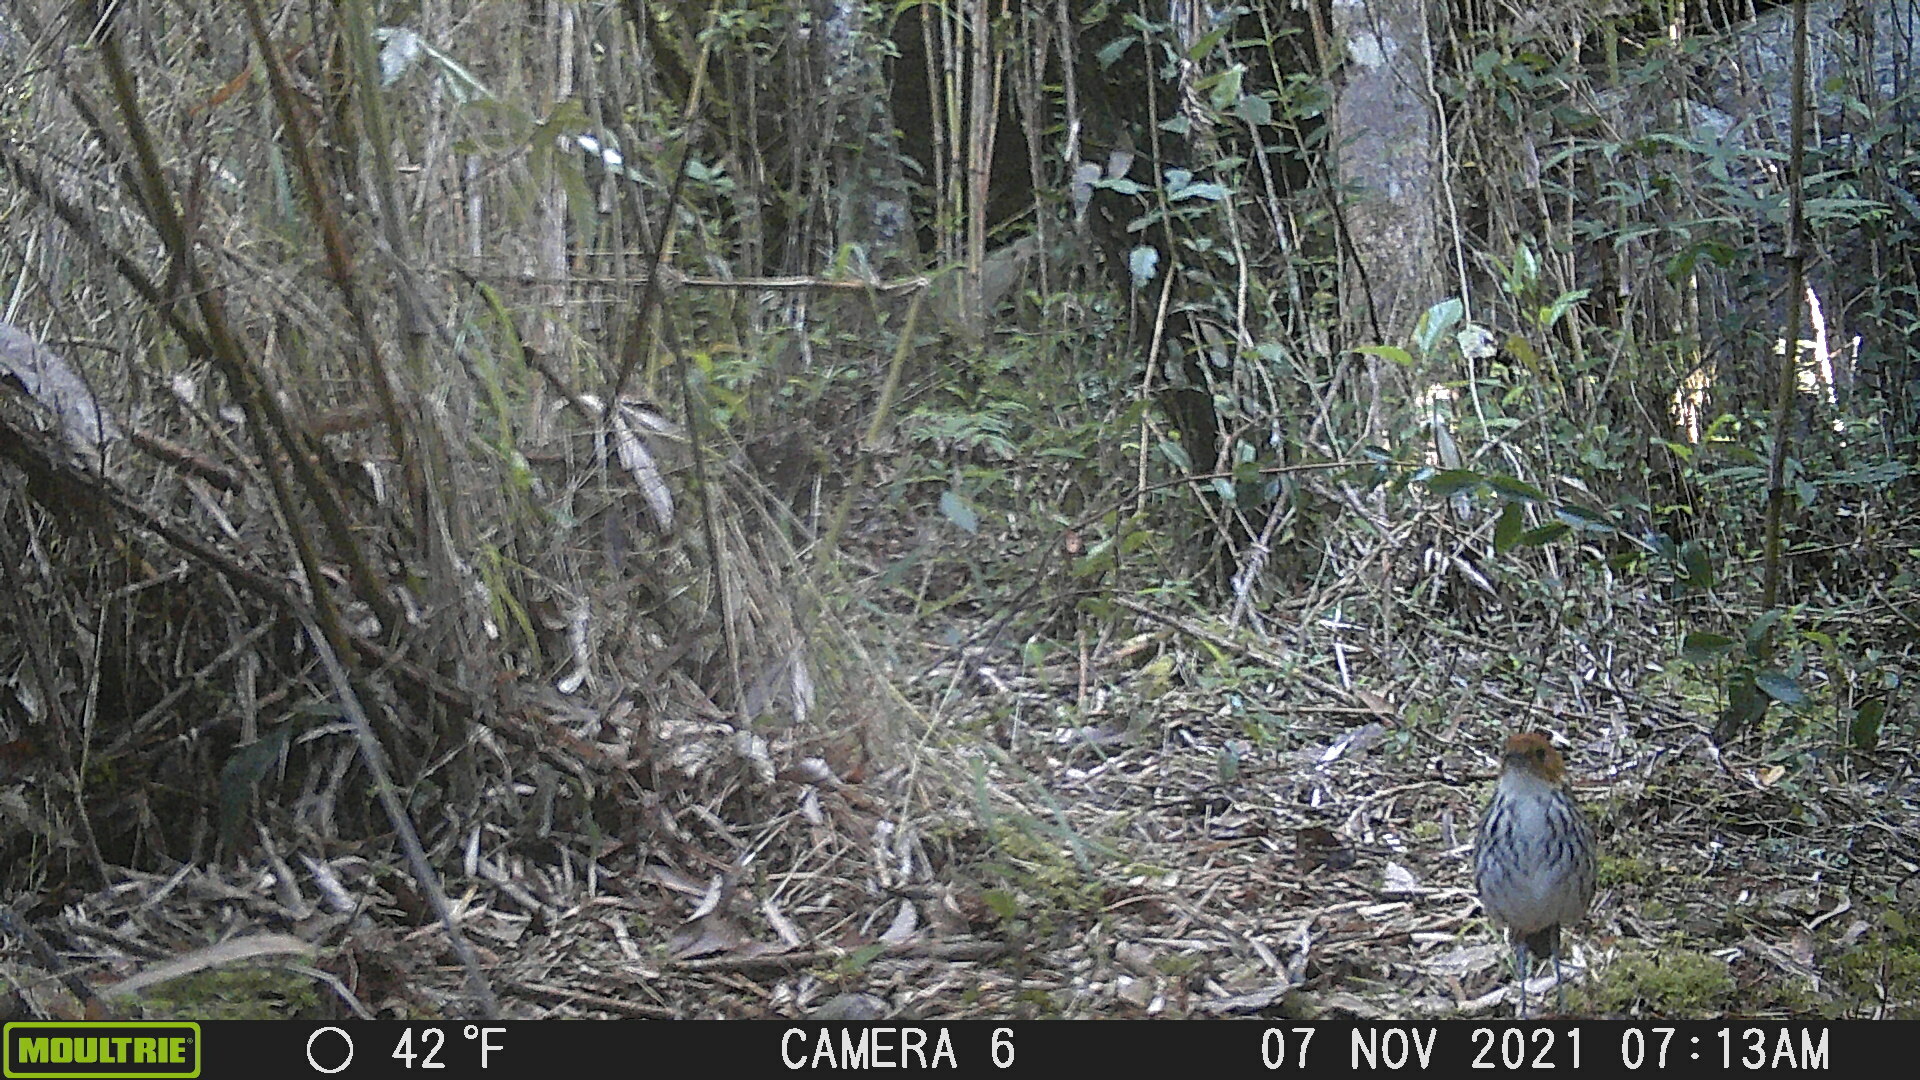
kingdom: Animalia
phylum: Chordata
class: Aves
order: Passeriformes
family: Grallariidae
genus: Grallaria
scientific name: Grallaria ruficapilla
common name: Chestnut-crowned antpitta
